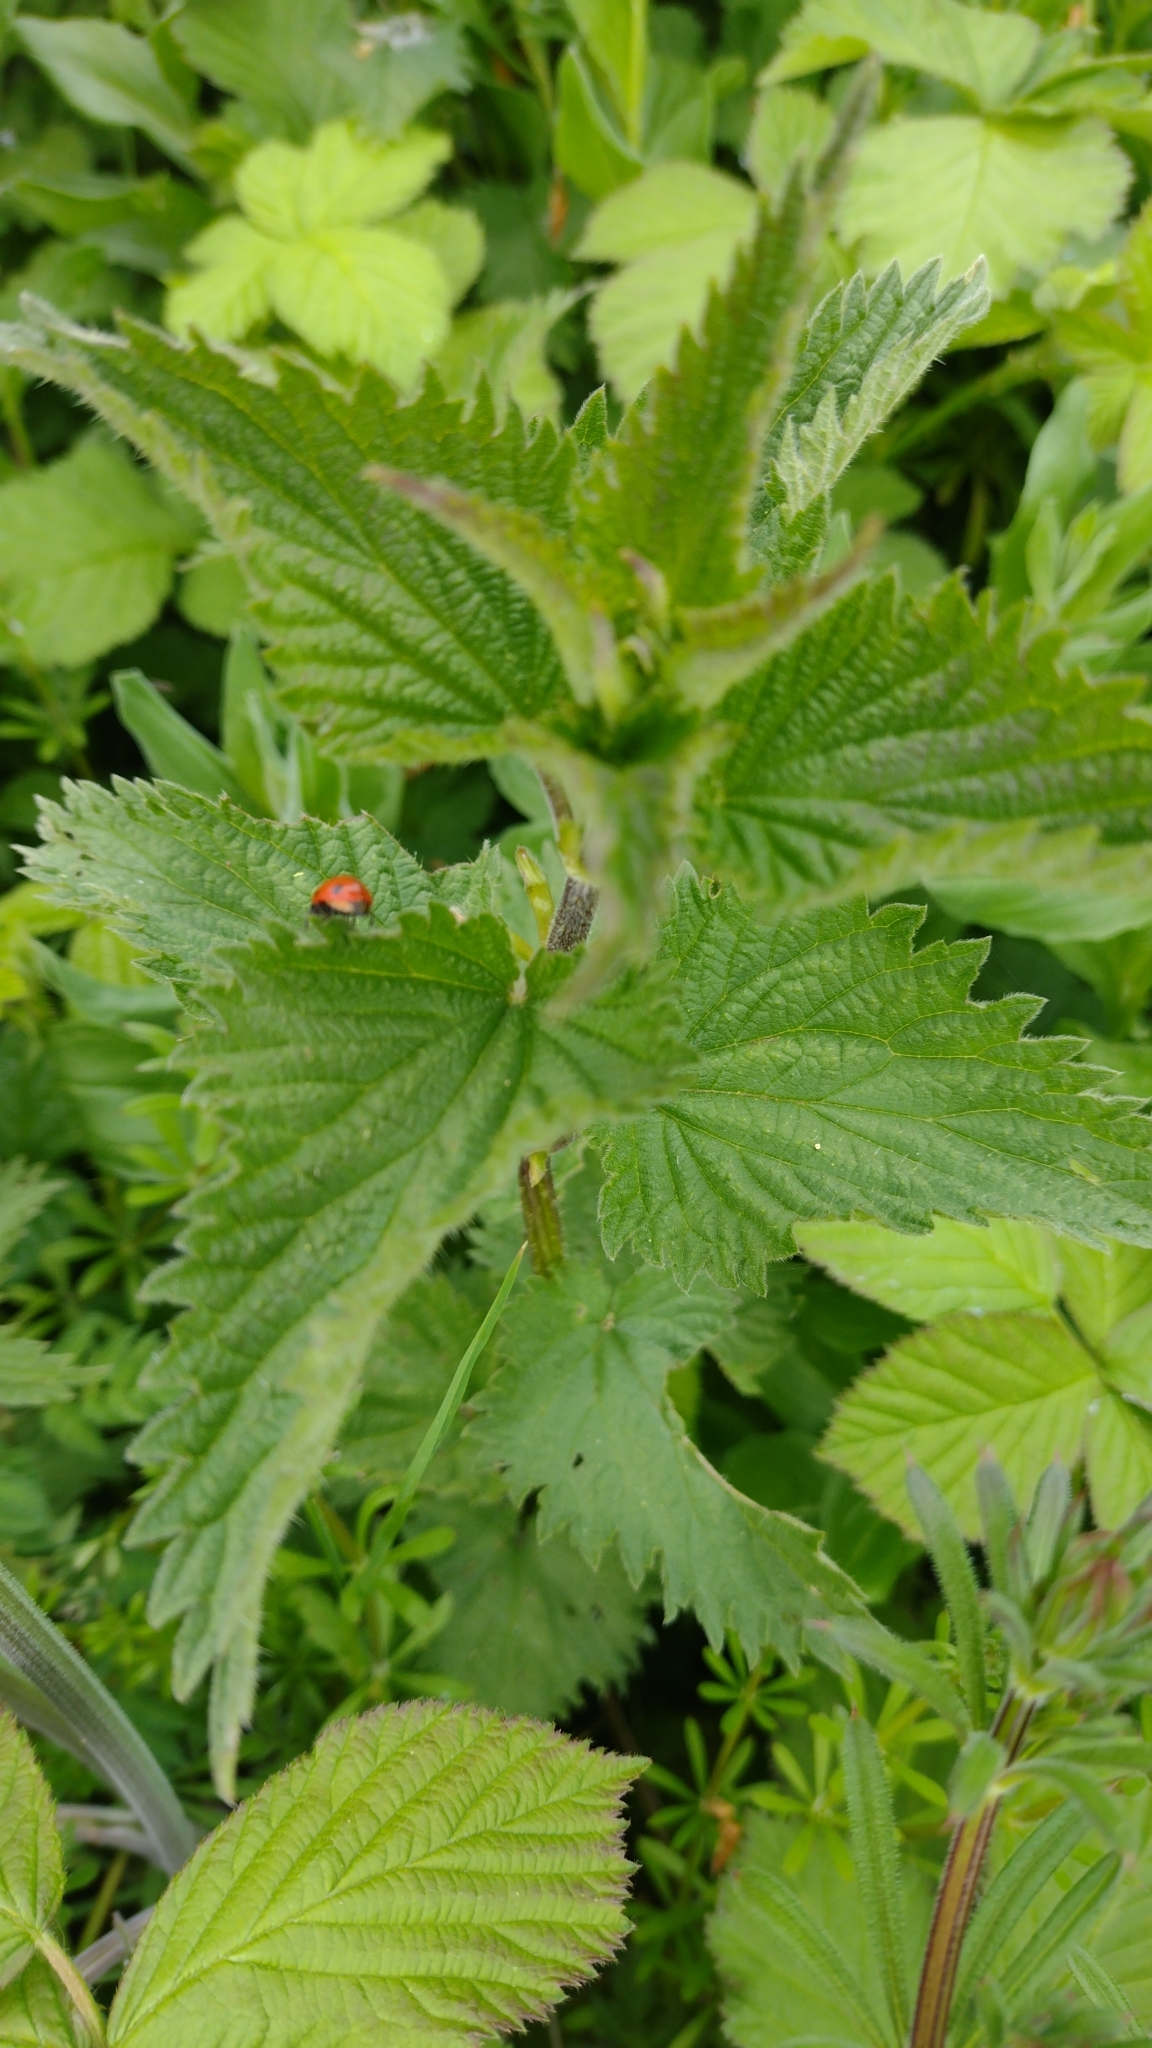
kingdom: Plantae
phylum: Tracheophyta
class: Magnoliopsida
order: Rosales
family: Urticaceae
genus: Urtica
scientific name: Urtica dioica
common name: Common nettle
